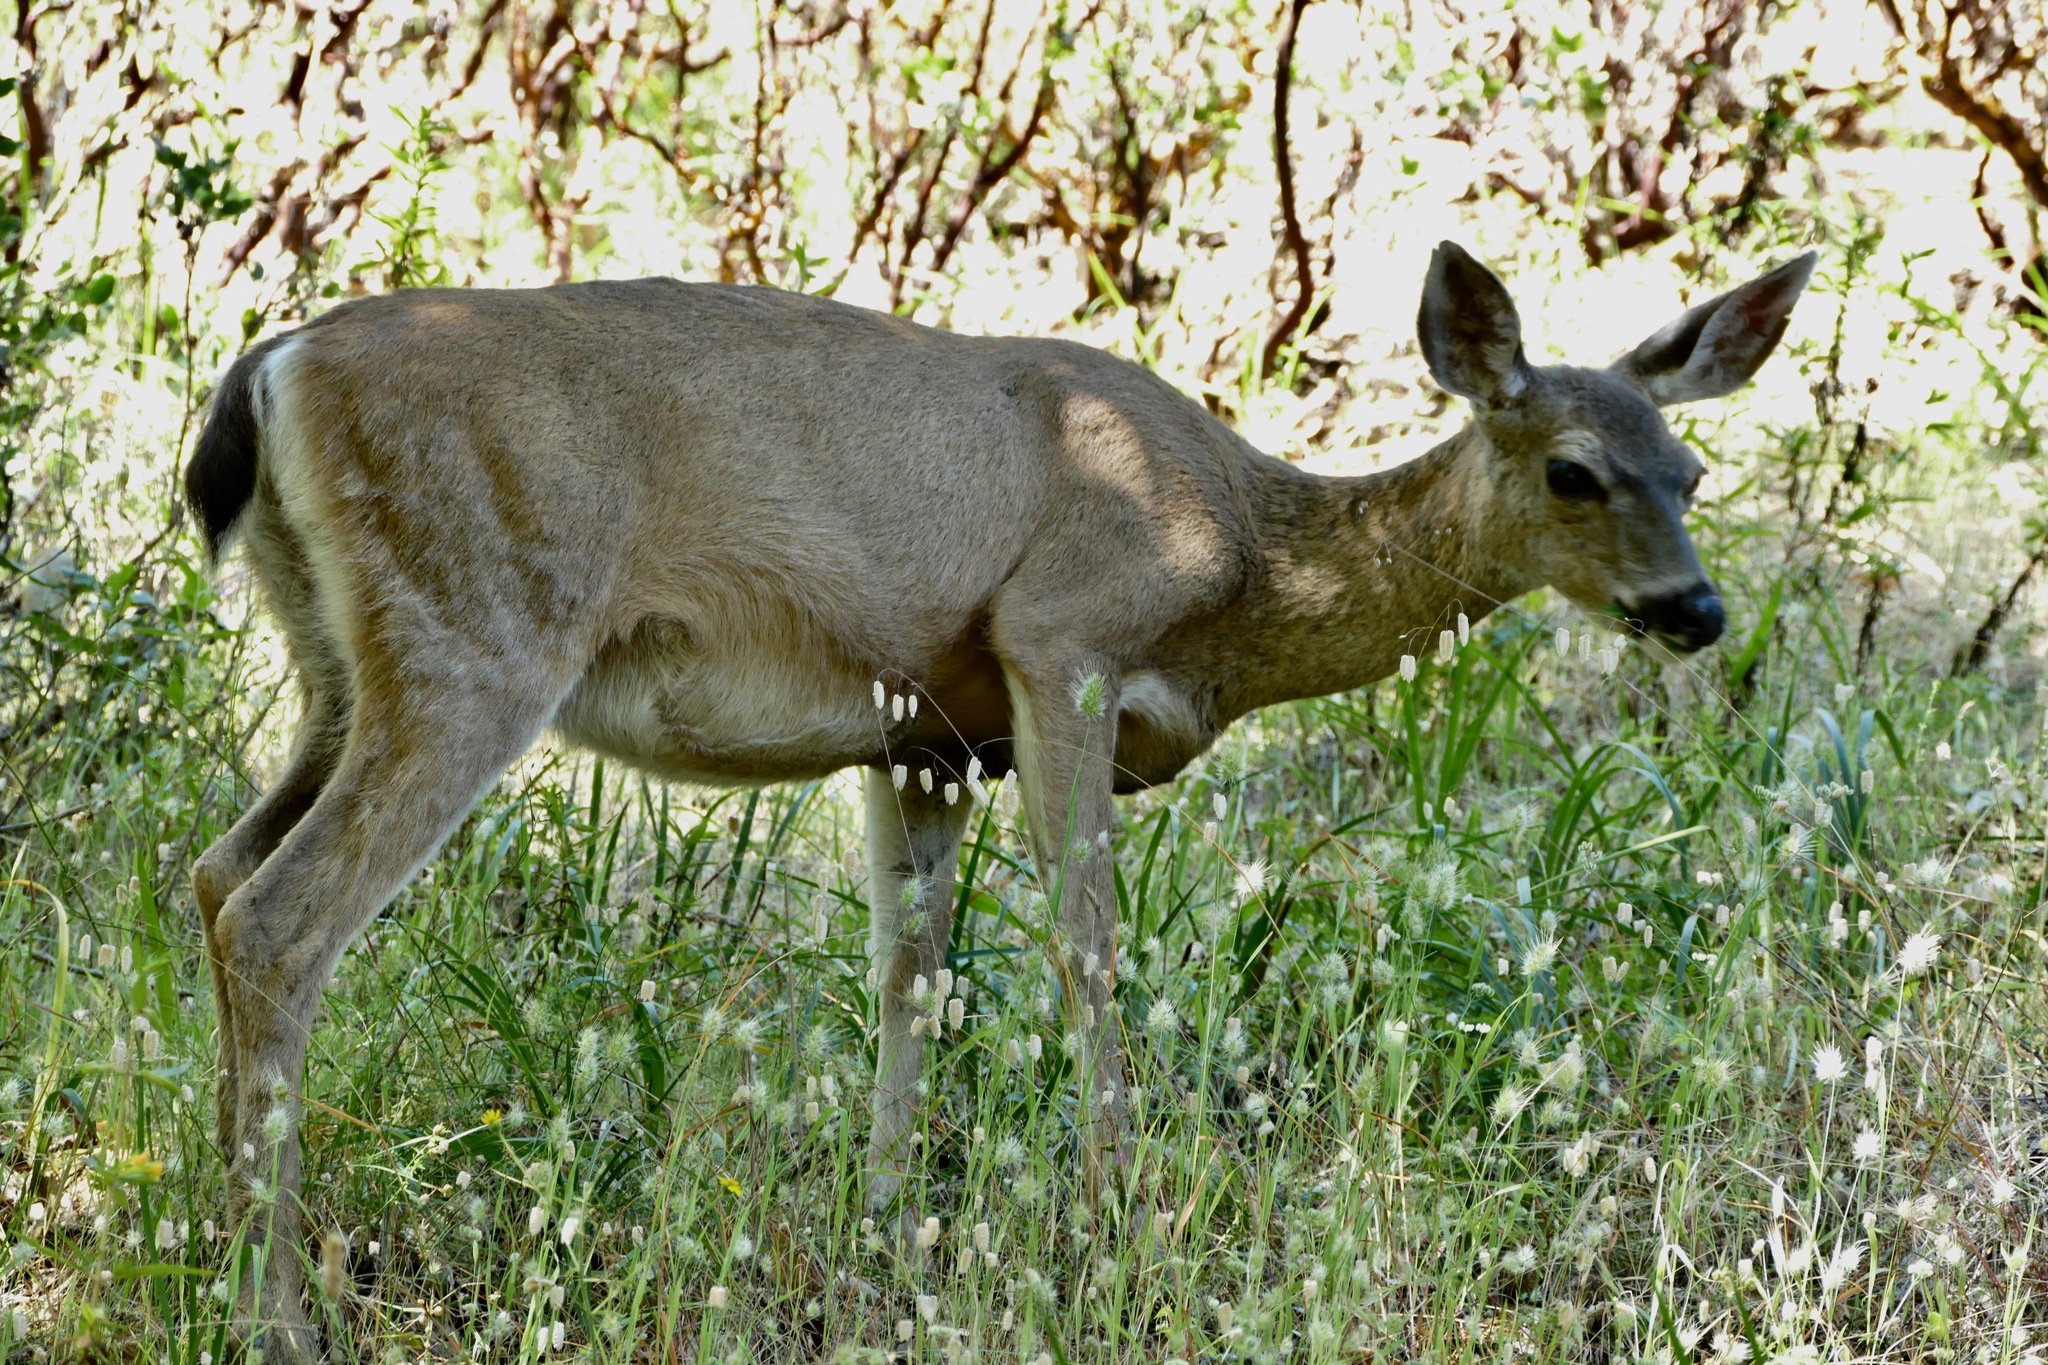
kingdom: Animalia
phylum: Chordata
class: Mammalia
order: Artiodactyla
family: Cervidae
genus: Odocoileus
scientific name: Odocoileus hemionus
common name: Mule deer
